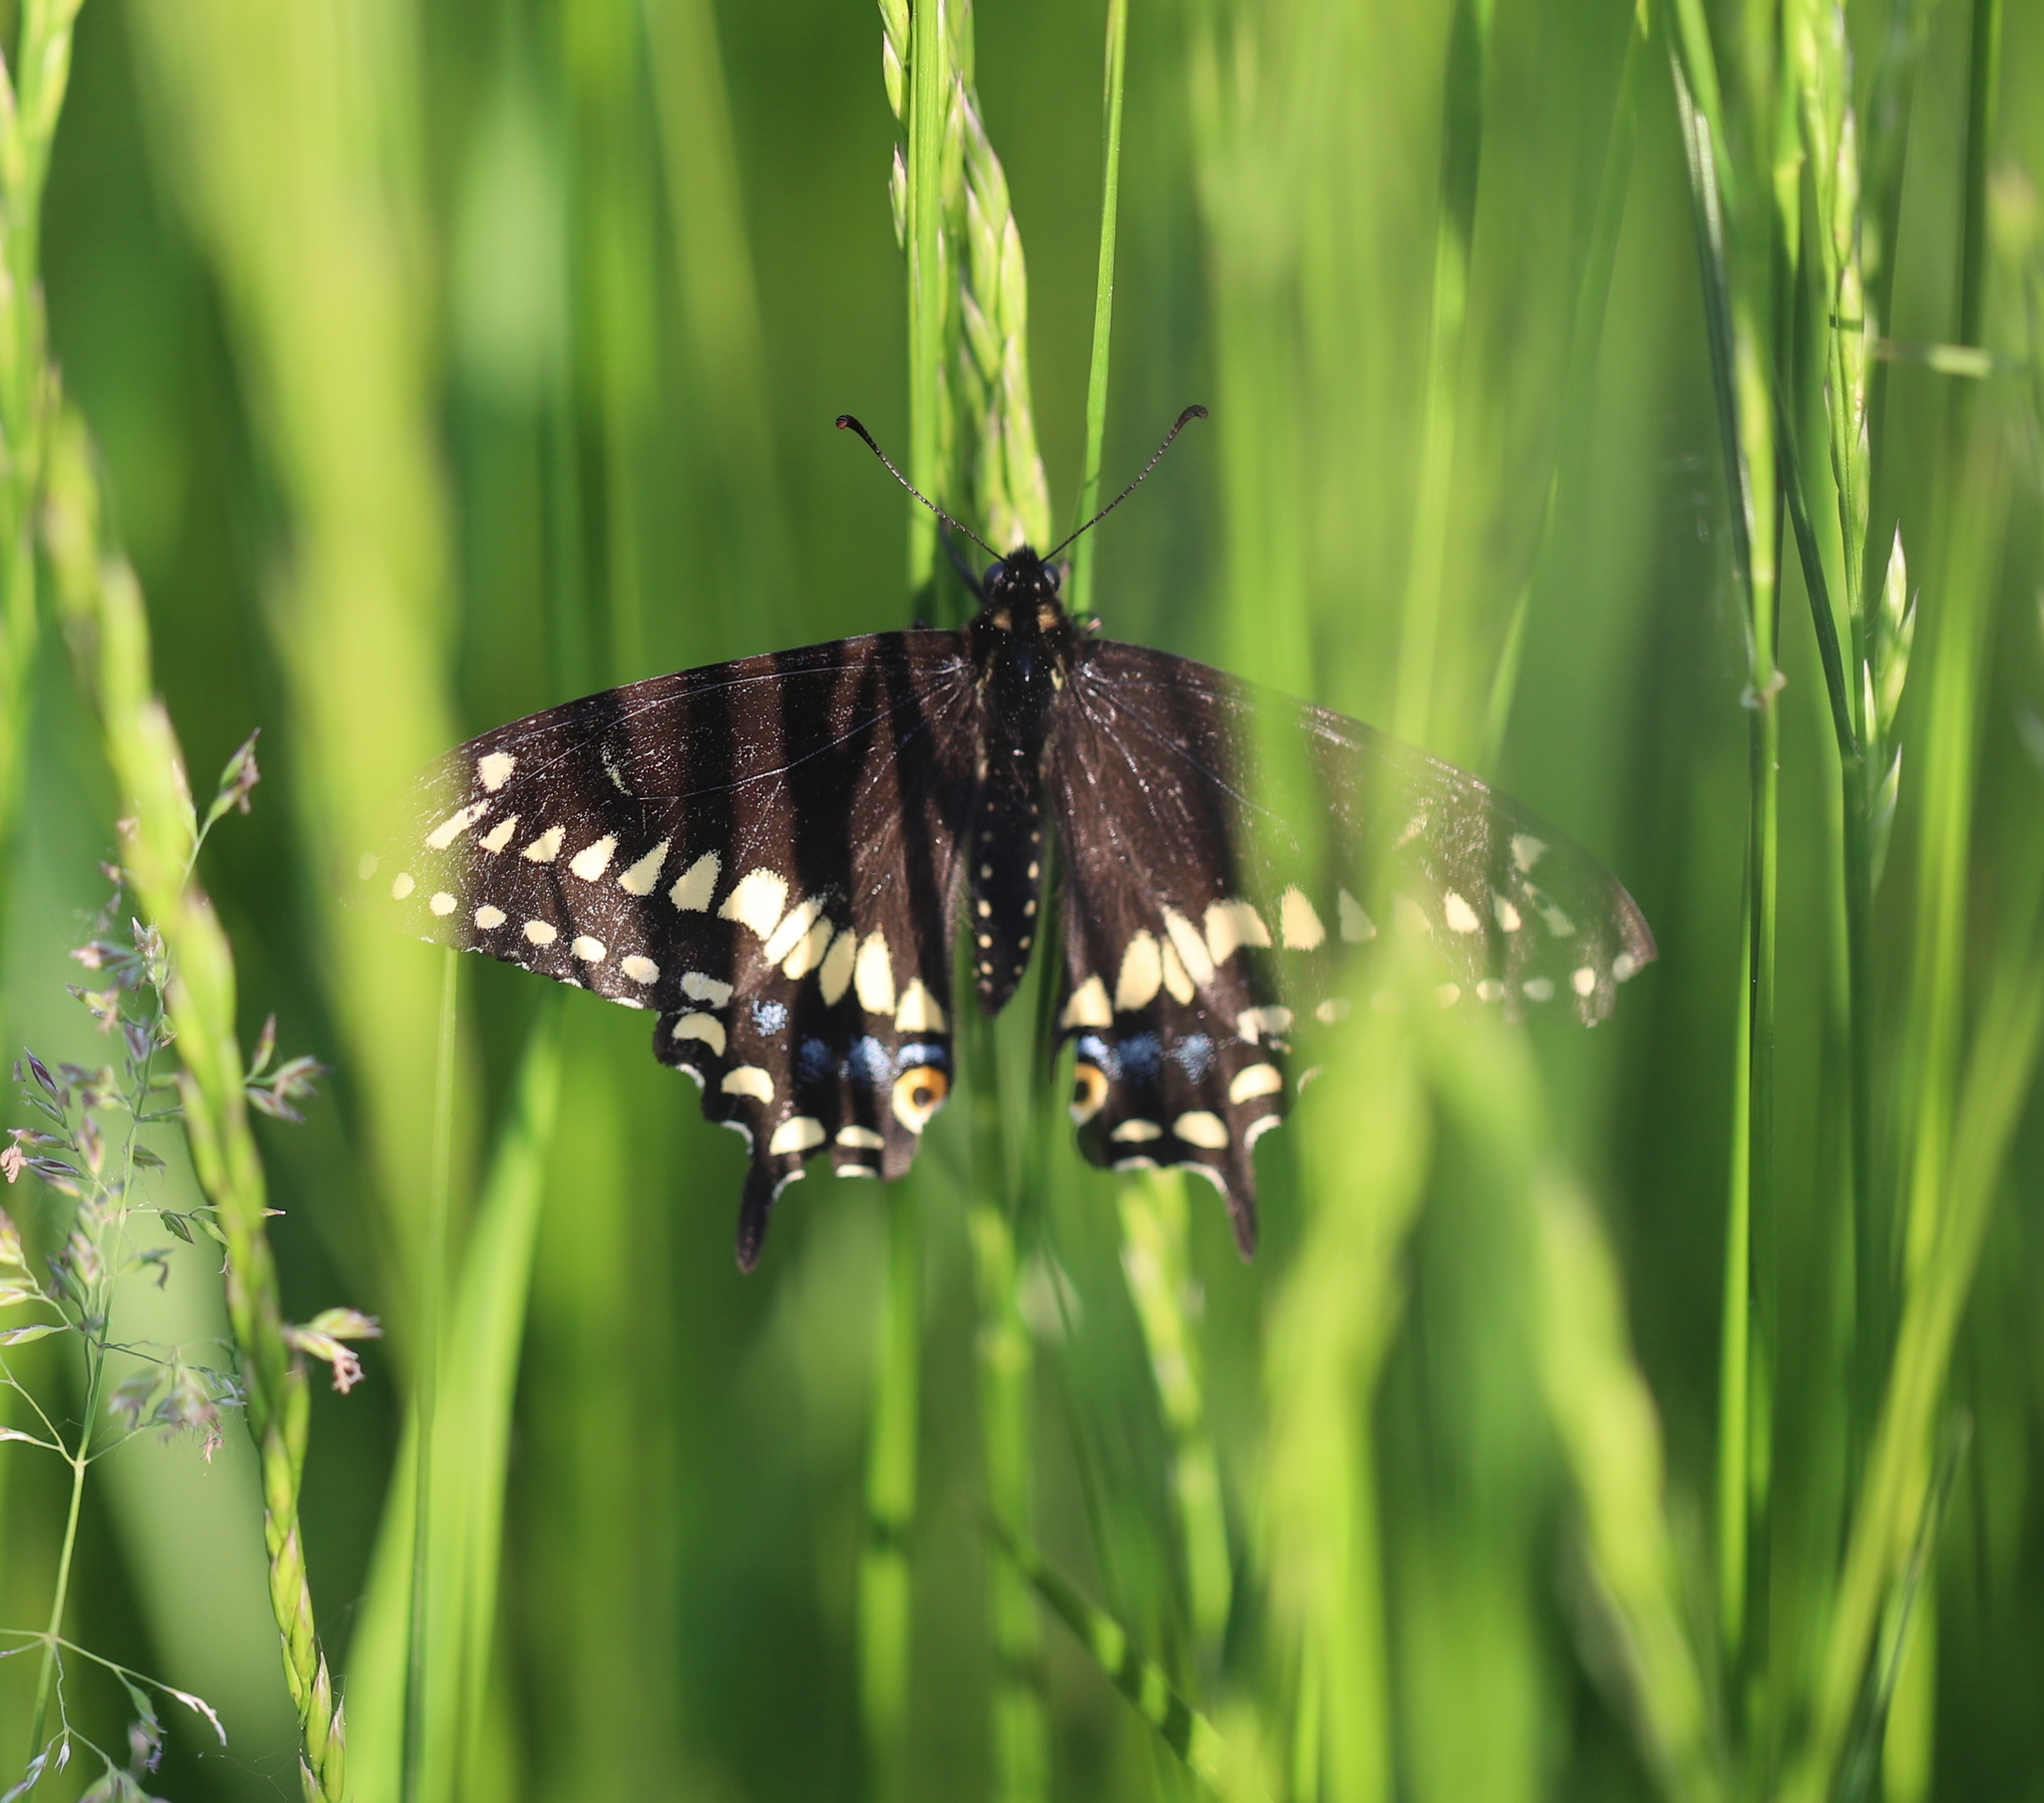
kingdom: Animalia
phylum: Arthropoda
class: Insecta
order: Lepidoptera
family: Papilionidae
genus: Papilio
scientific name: Papilio polyxenes
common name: Black swallowtail
